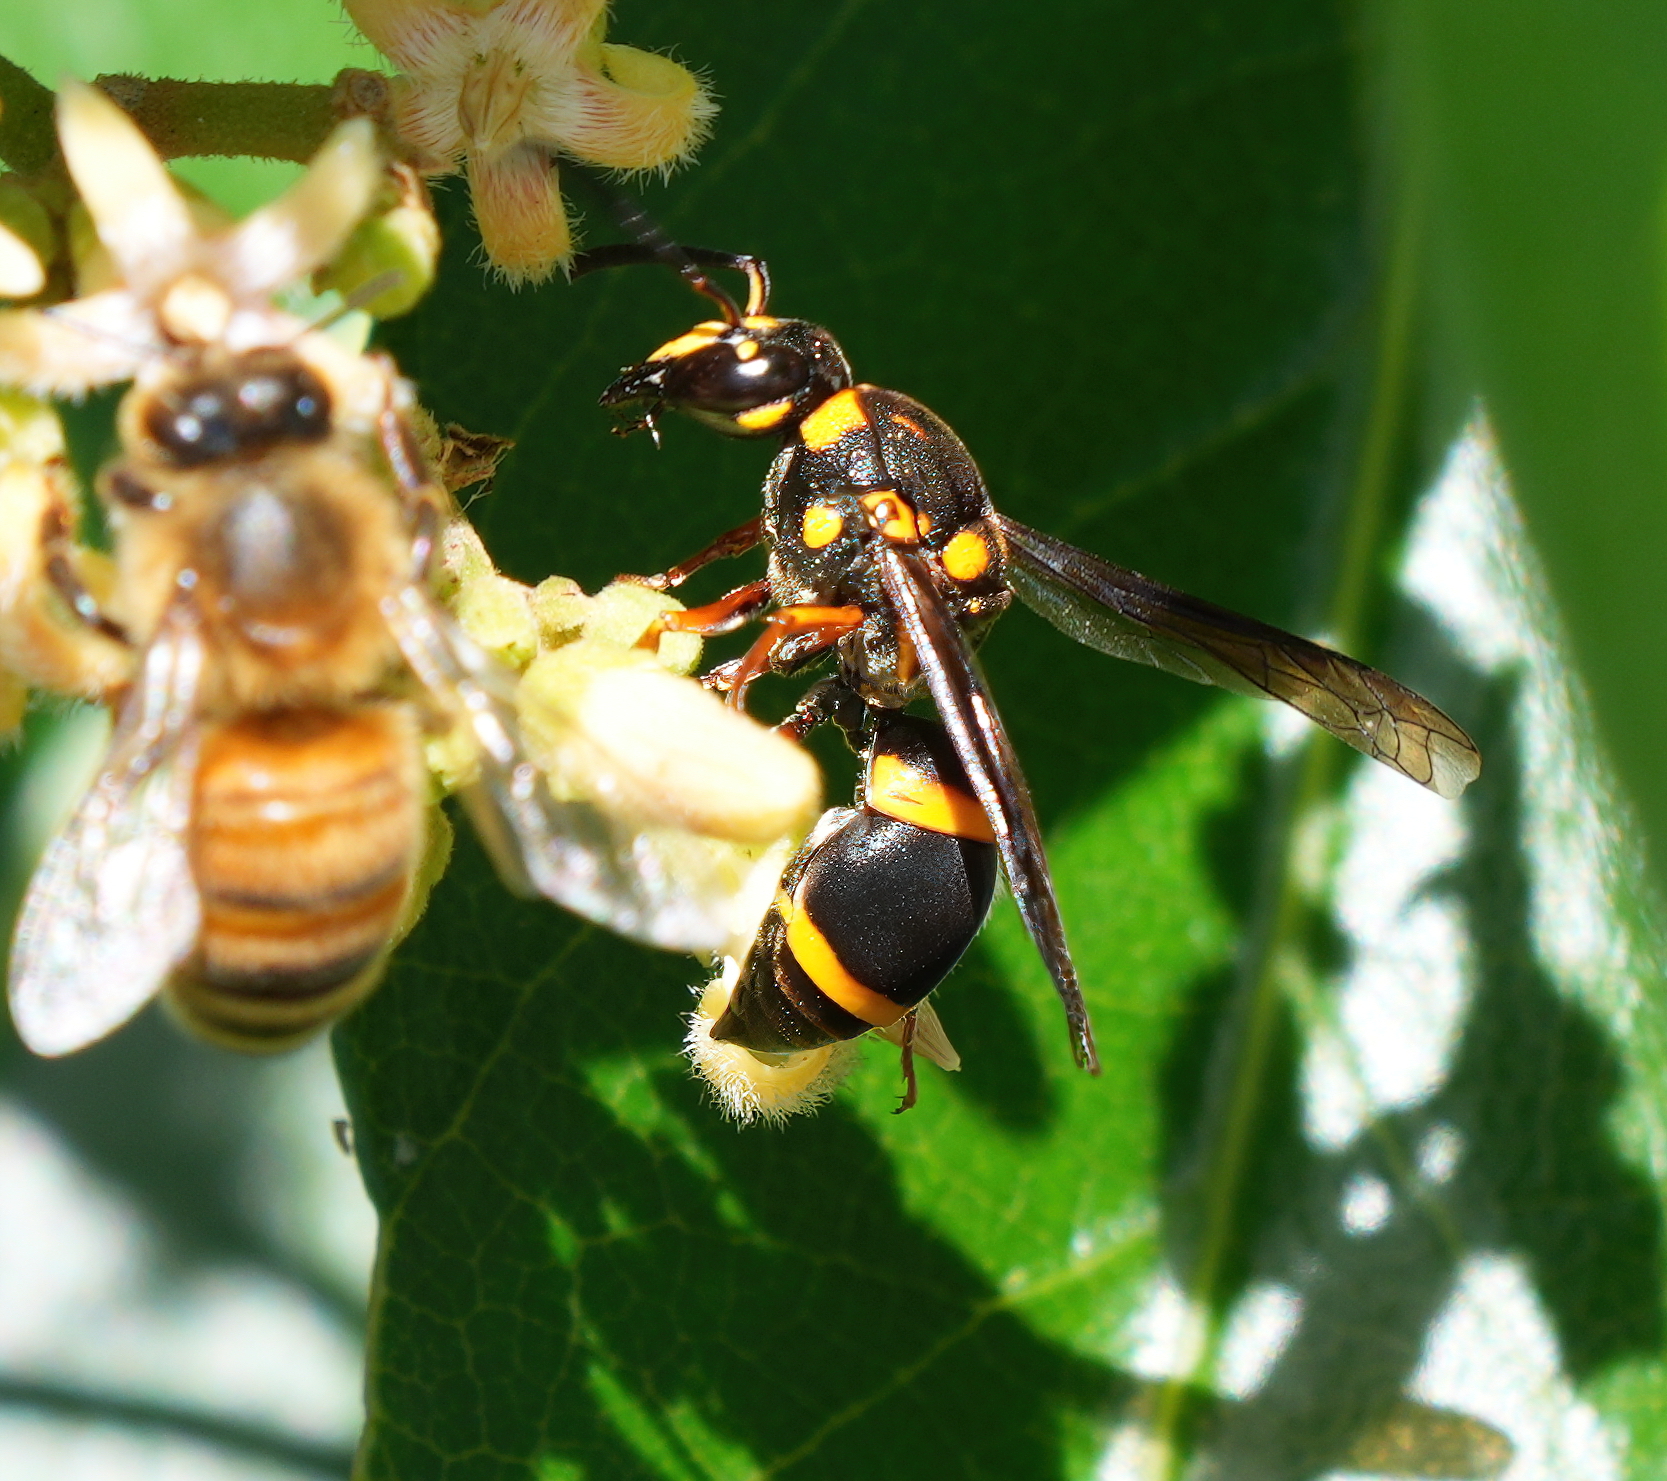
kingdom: Animalia
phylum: Arthropoda
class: Insecta
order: Hymenoptera
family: Eumenidae
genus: Euodynerus
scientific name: Euodynerus aspra
